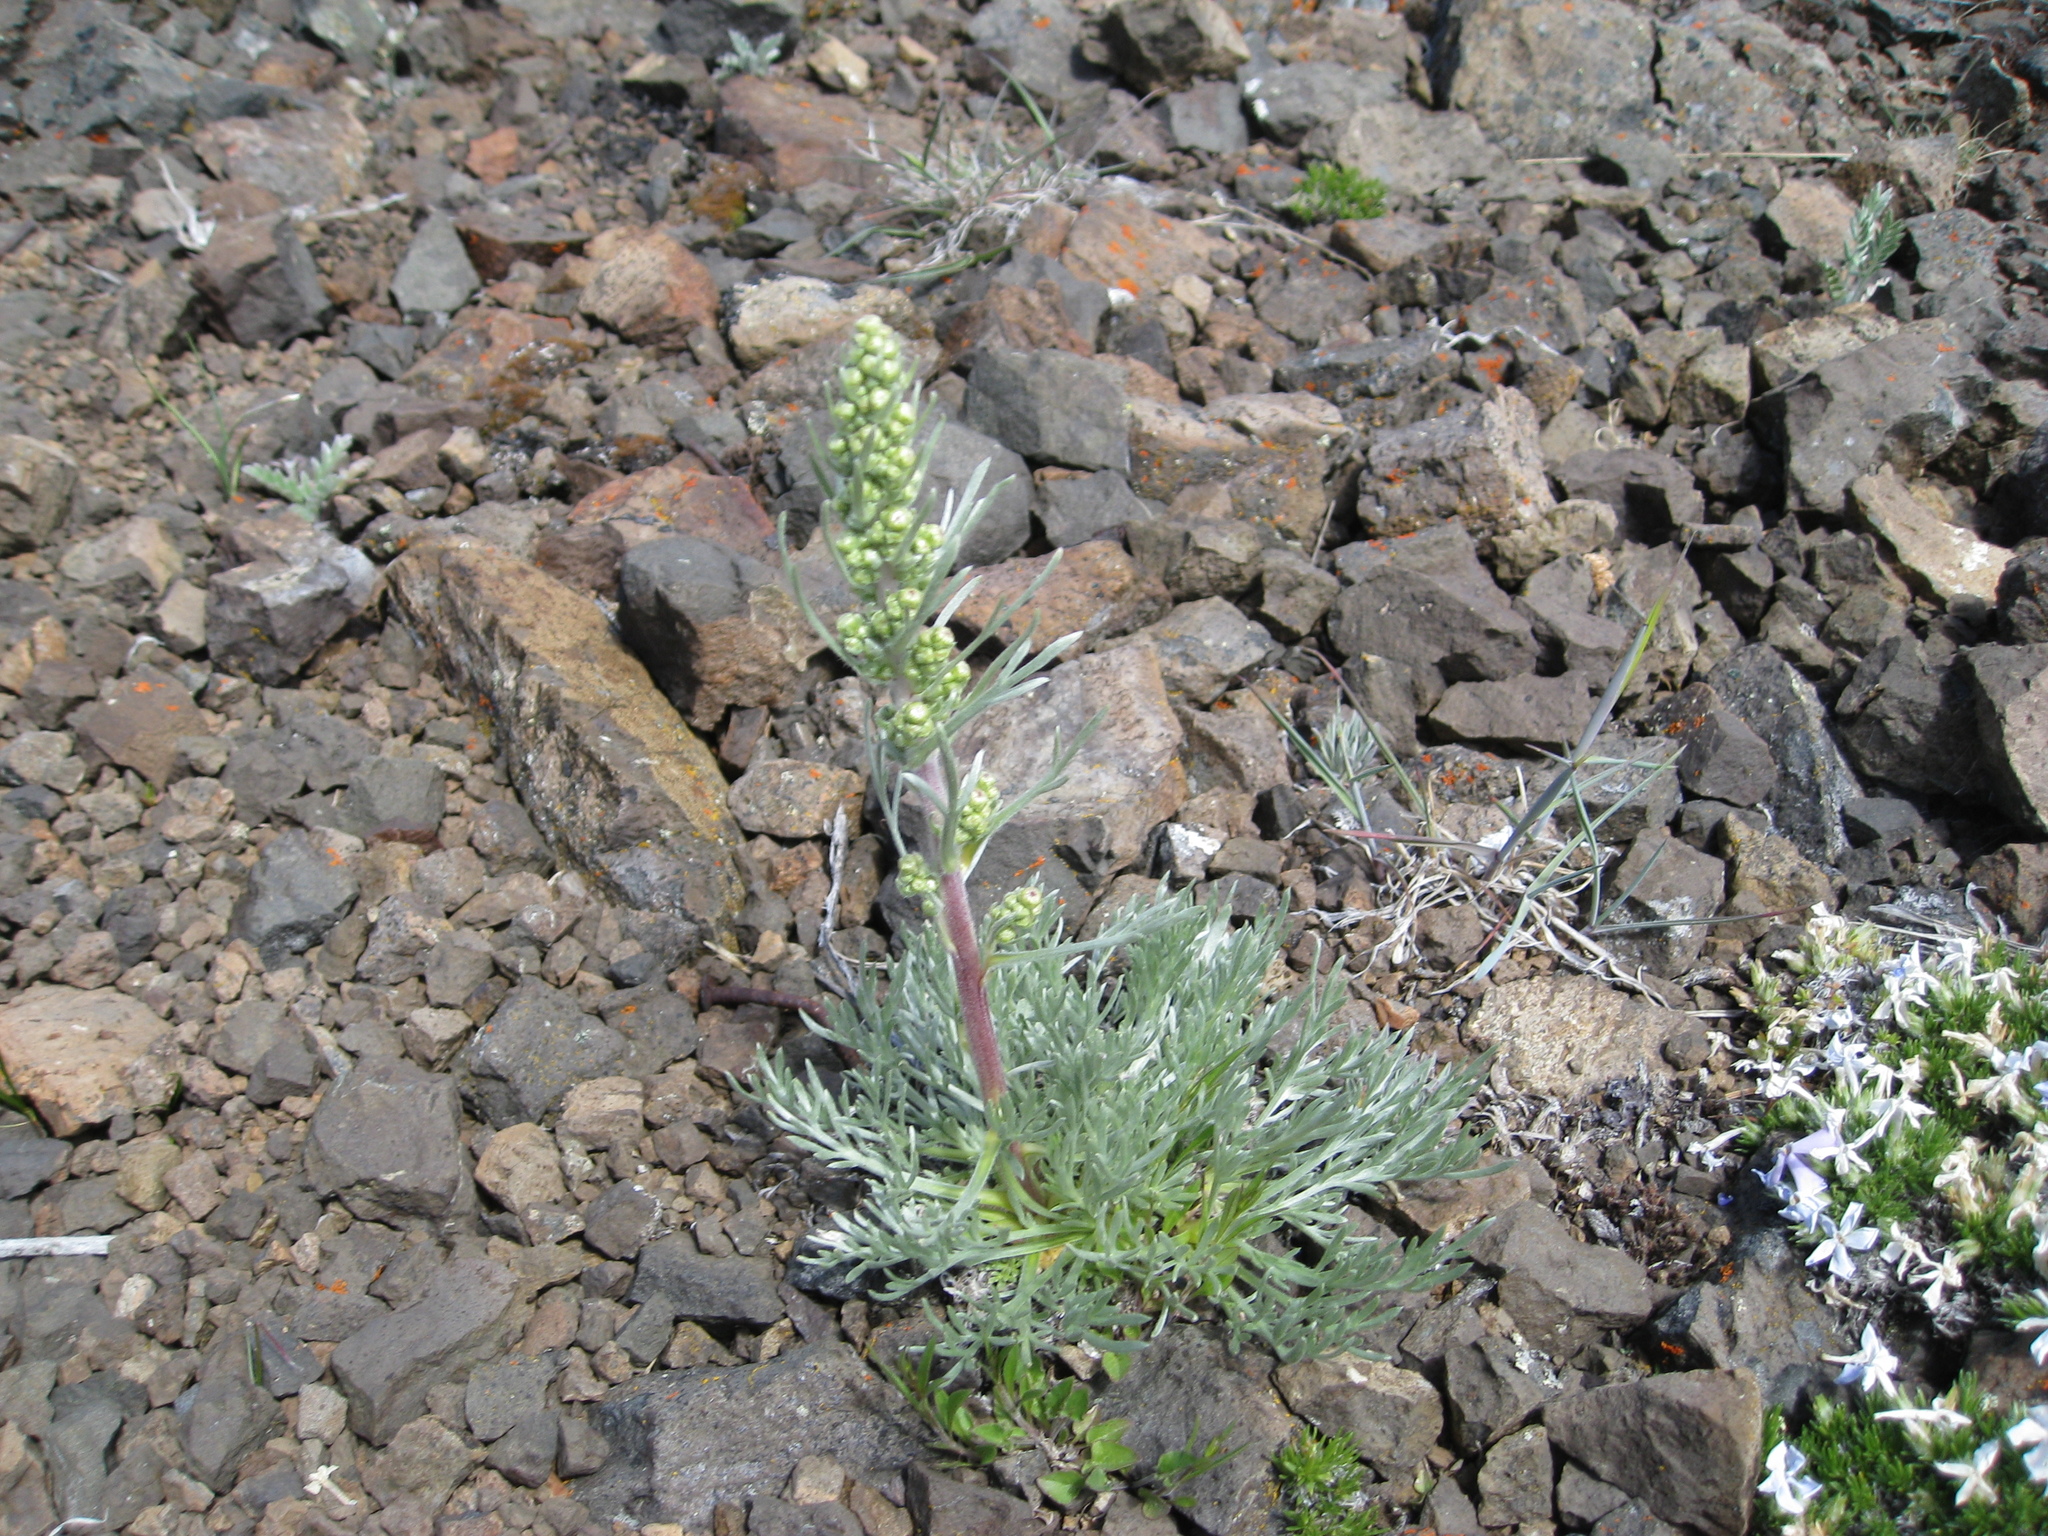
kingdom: Plantae
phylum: Tracheophyta
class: Magnoliopsida
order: Asterales
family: Asteraceae
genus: Artemisia
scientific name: Artemisia borealis
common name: Boreal sage
